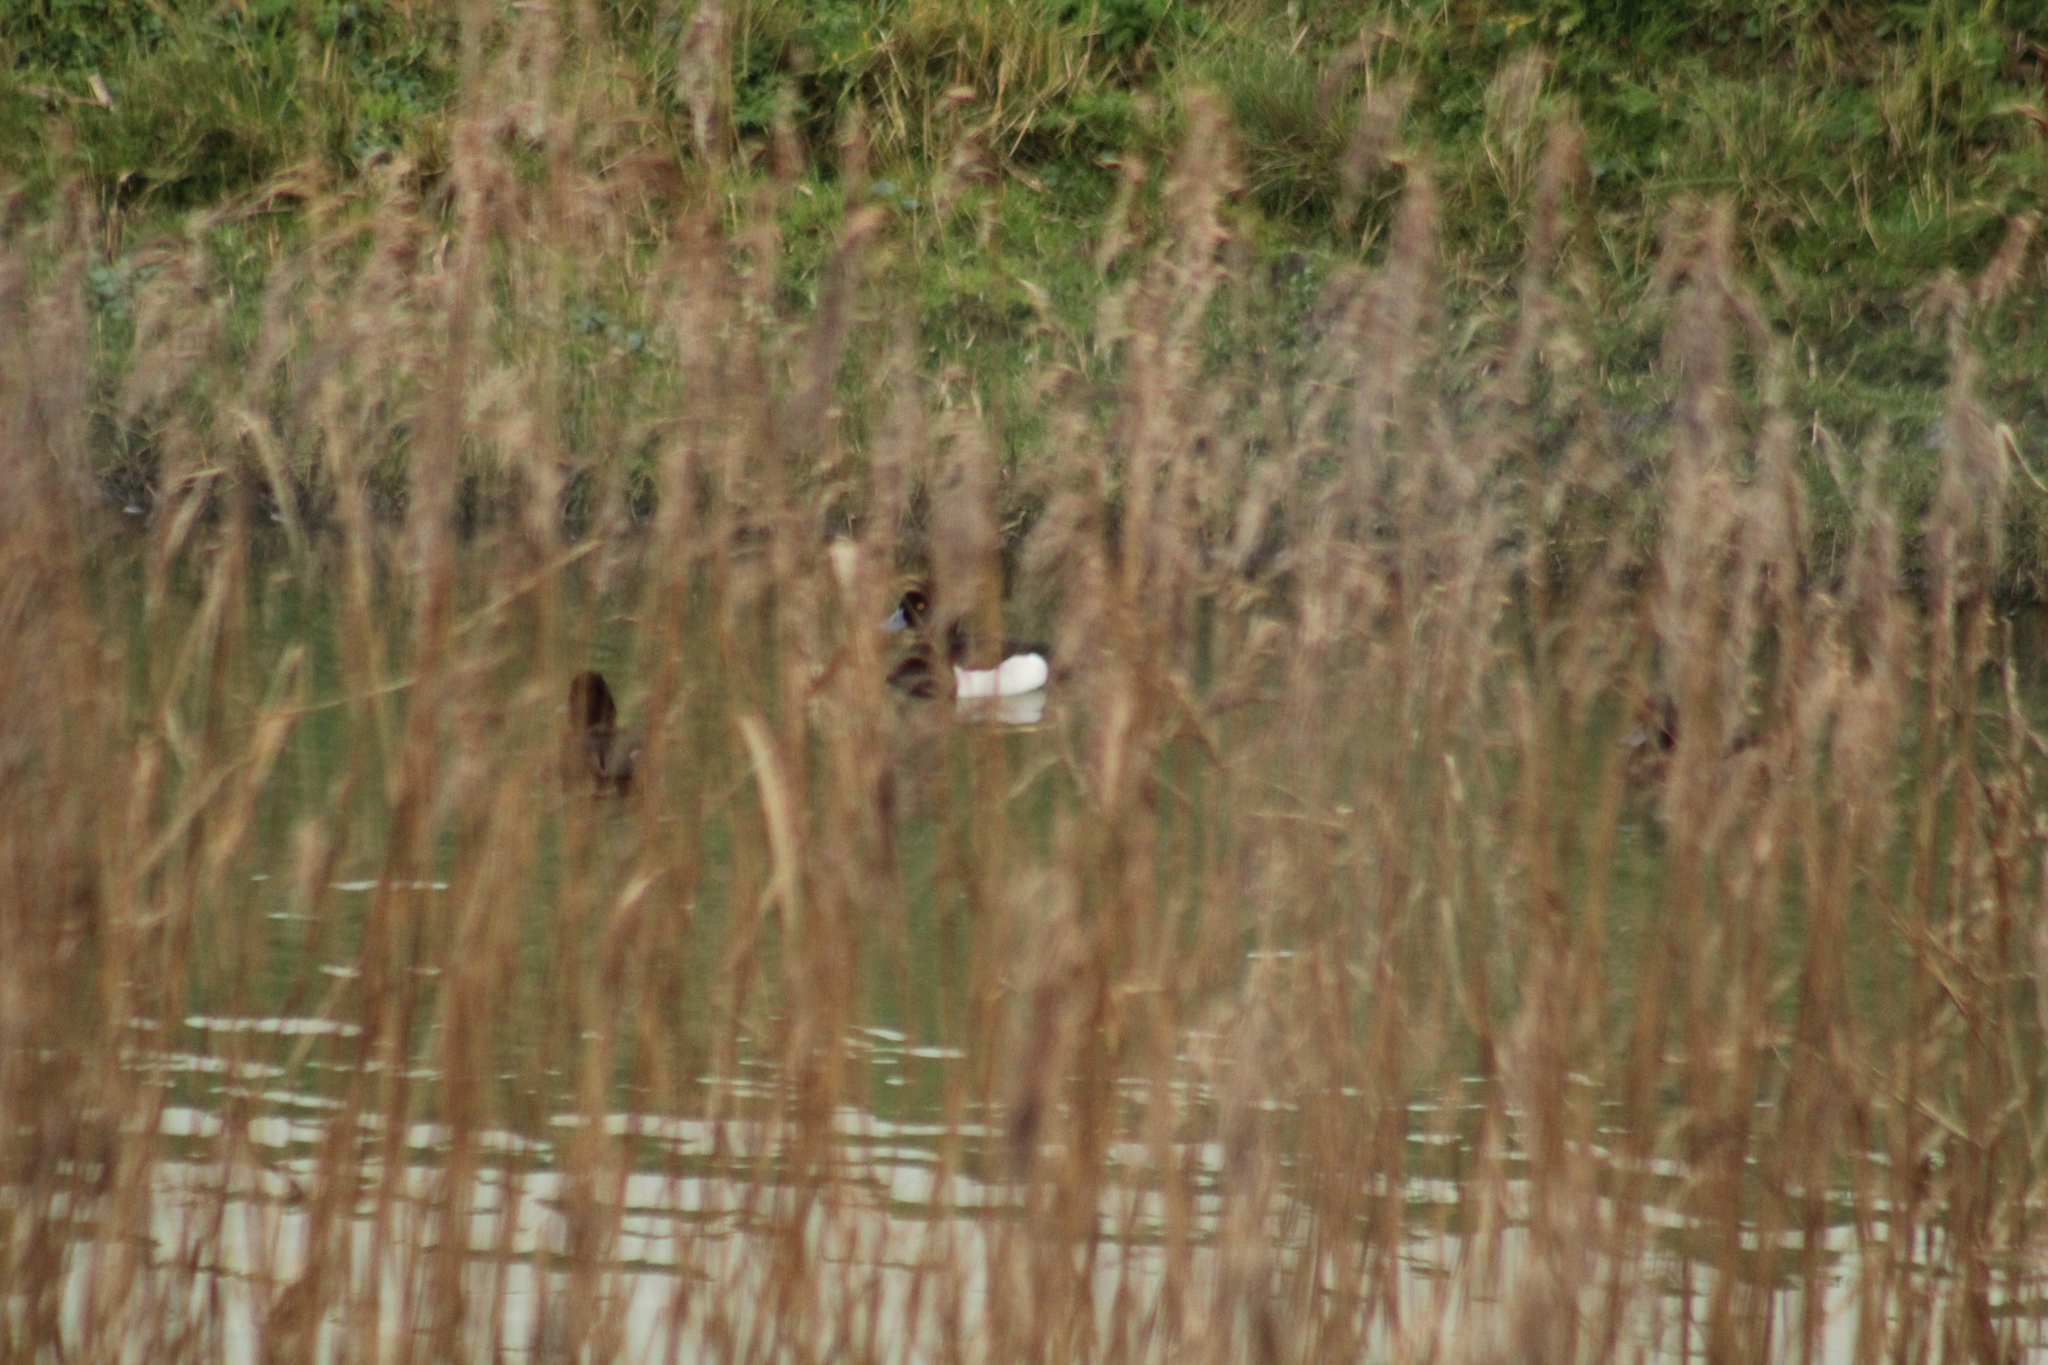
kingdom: Animalia
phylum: Chordata
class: Aves
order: Anseriformes
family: Anatidae
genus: Aythya
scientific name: Aythya fuligula
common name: Tufted duck
